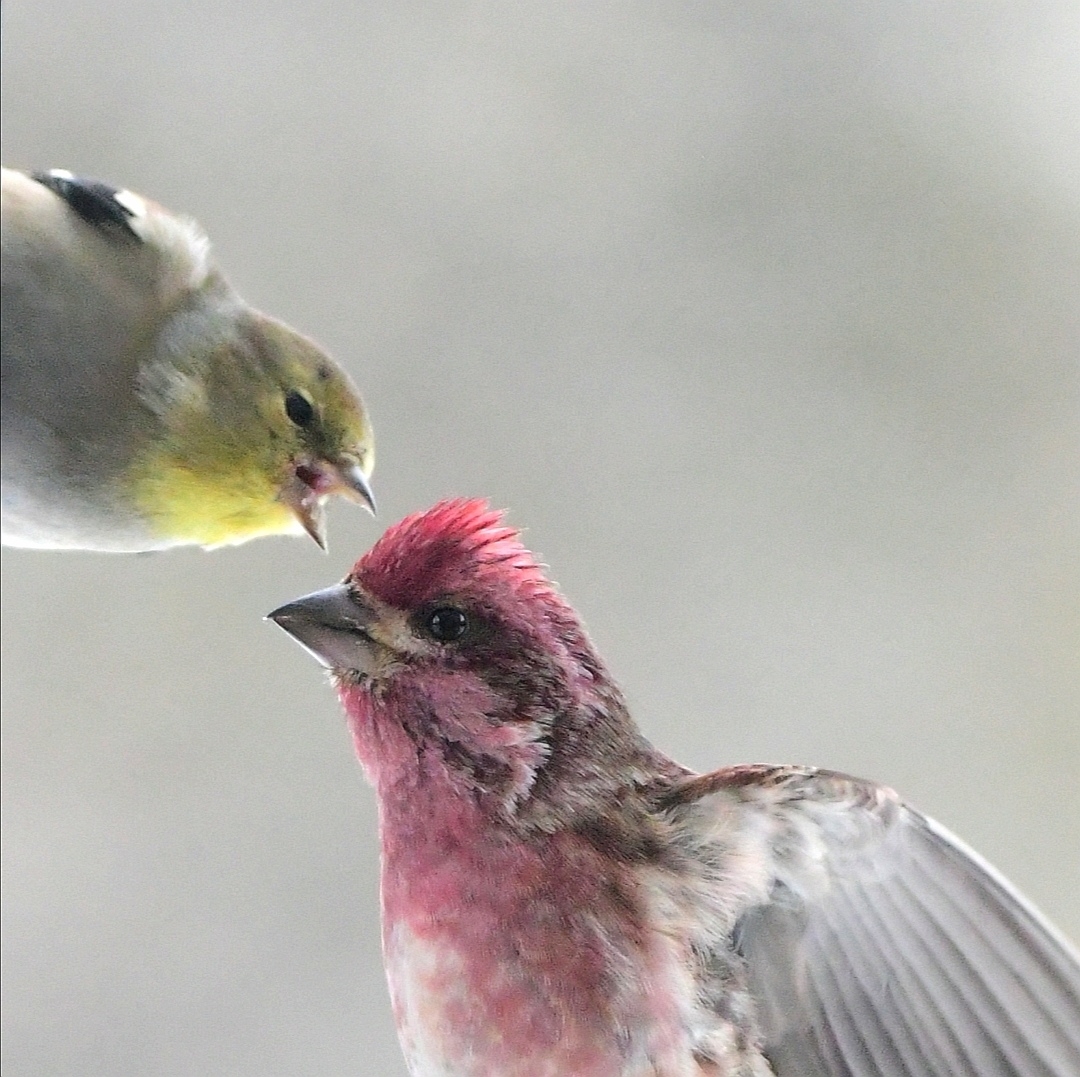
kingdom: Animalia
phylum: Chordata
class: Aves
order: Passeriformes
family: Fringillidae
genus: Haemorhous
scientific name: Haemorhous purpureus
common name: Purple finch
